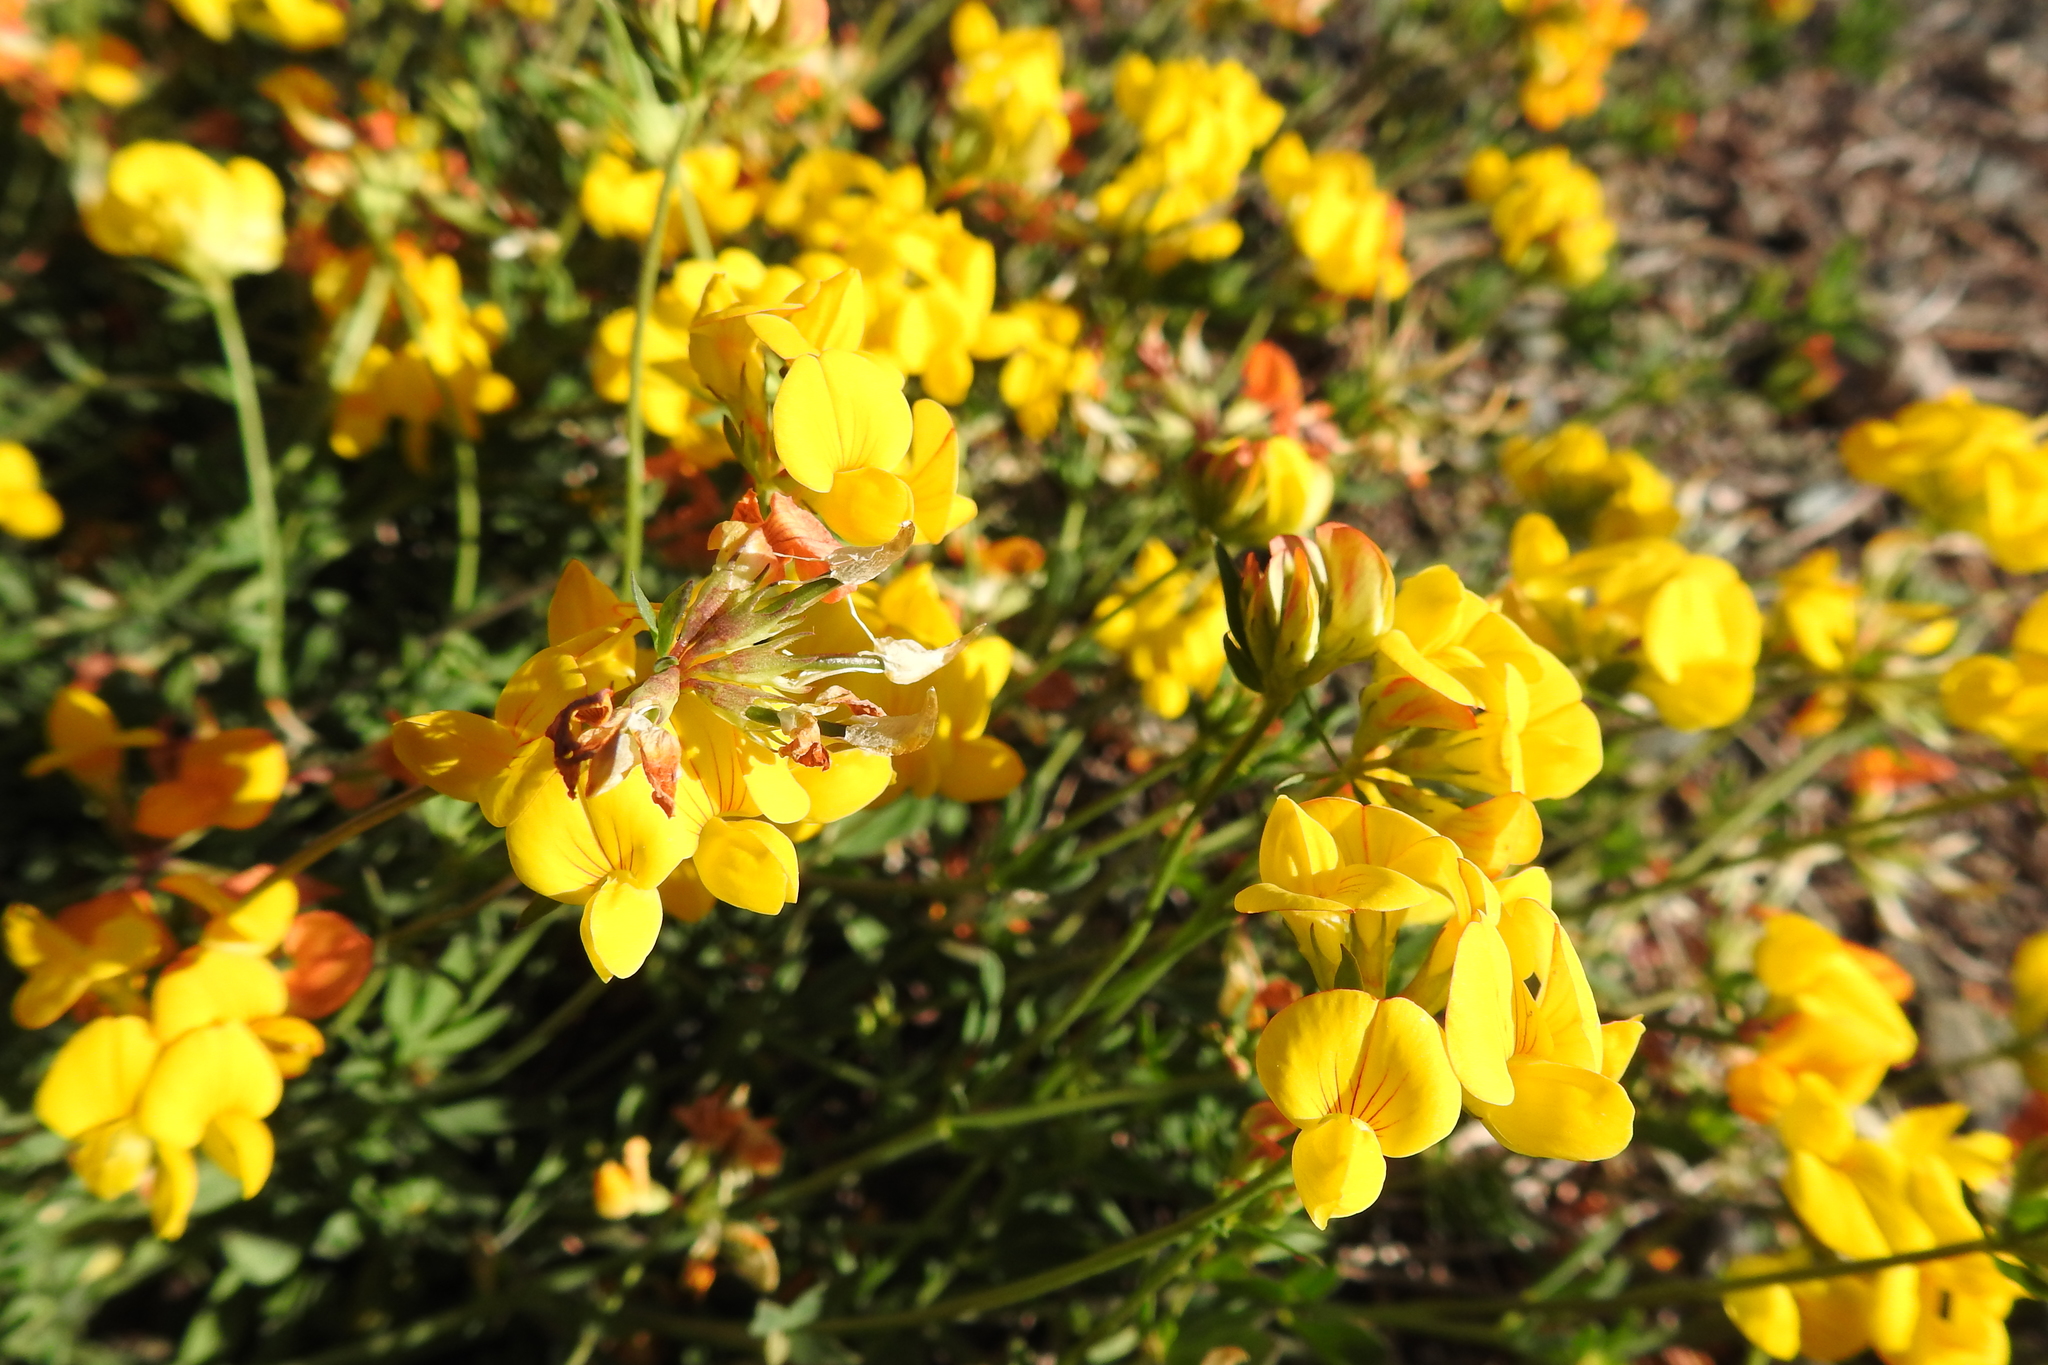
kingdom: Plantae
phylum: Tracheophyta
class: Magnoliopsida
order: Fabales
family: Fabaceae
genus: Lotus
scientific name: Lotus corniculatus
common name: Common bird's-foot-trefoil
